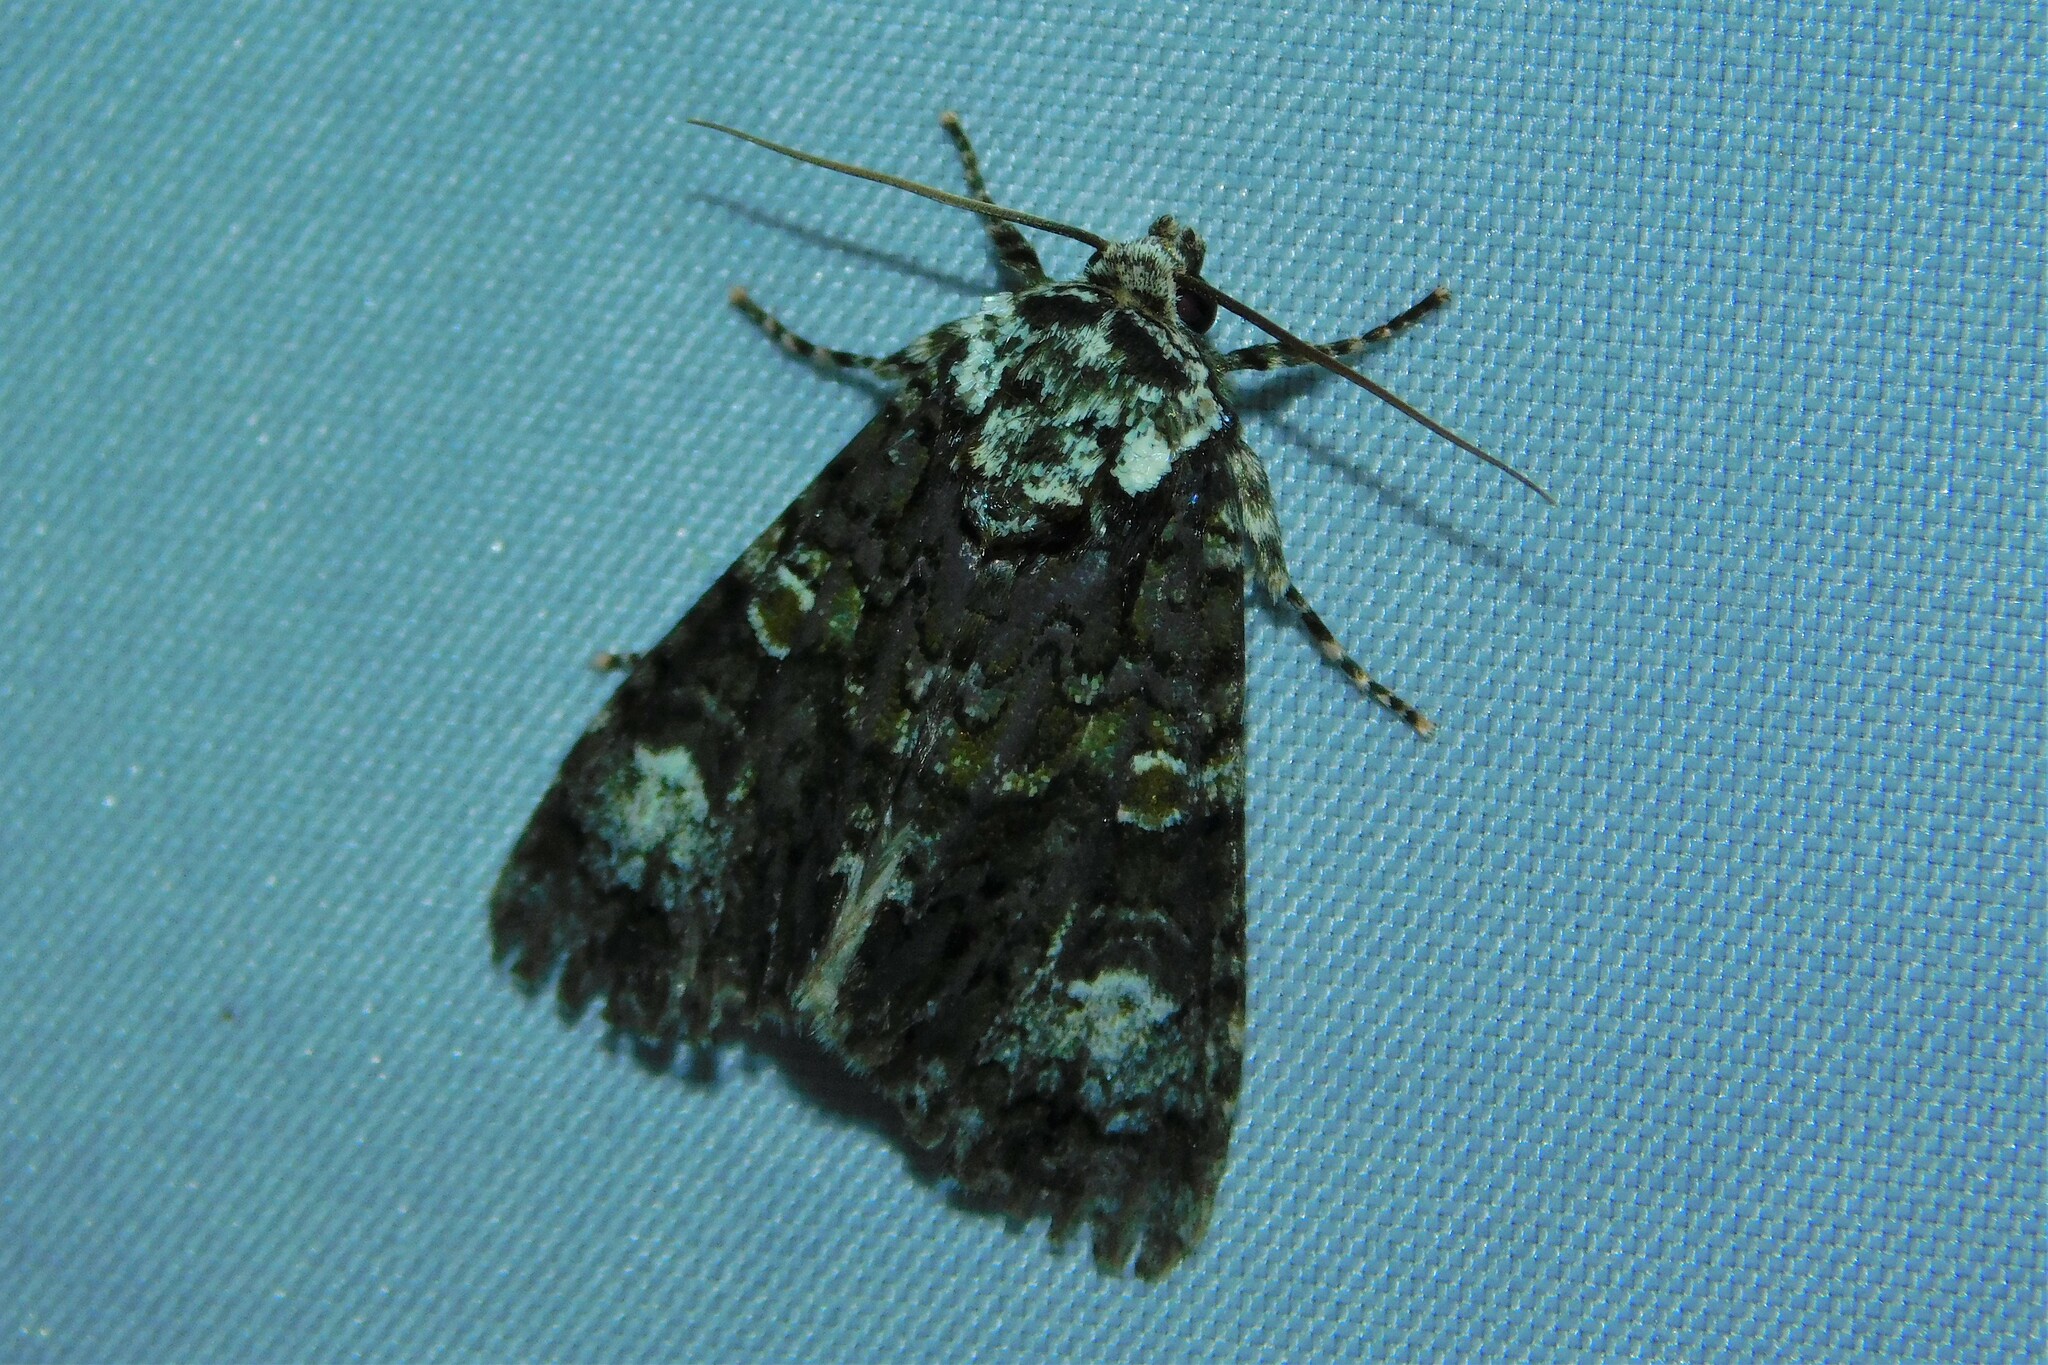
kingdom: Animalia
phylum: Arthropoda
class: Insecta
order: Lepidoptera
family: Noctuidae
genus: Craniophora
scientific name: Craniophora ligustri
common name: Coronet
